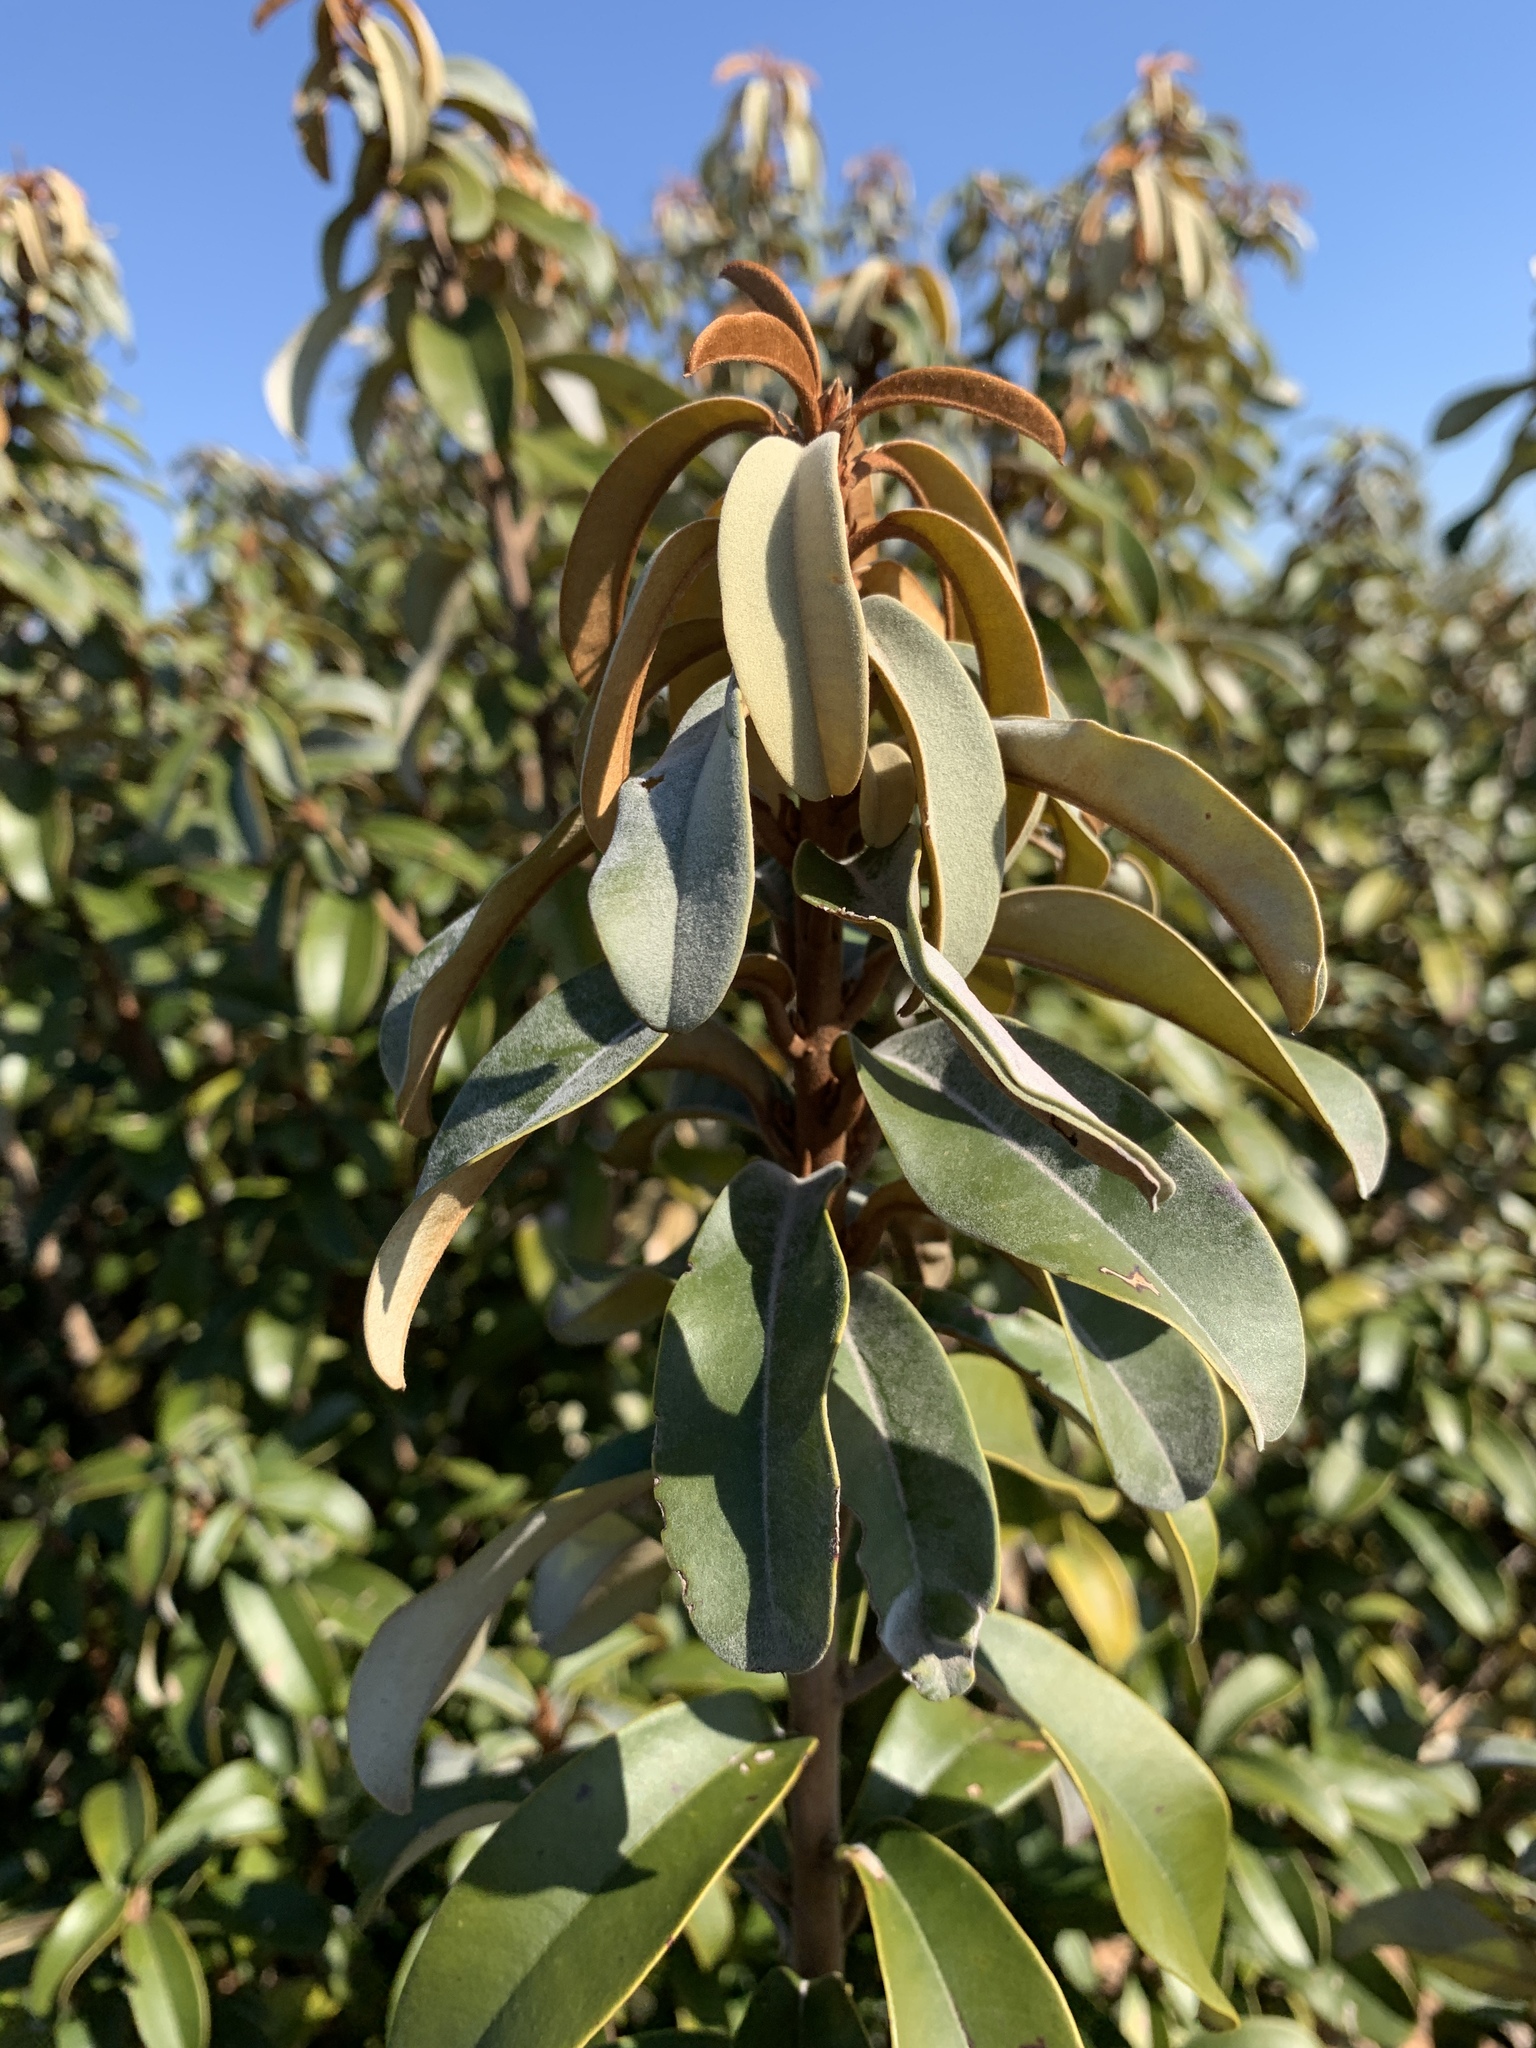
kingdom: Plantae
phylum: Tracheophyta
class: Magnoliopsida
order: Ericales
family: Sapotaceae
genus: Englerophytum
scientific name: Englerophytum magalismontanum
